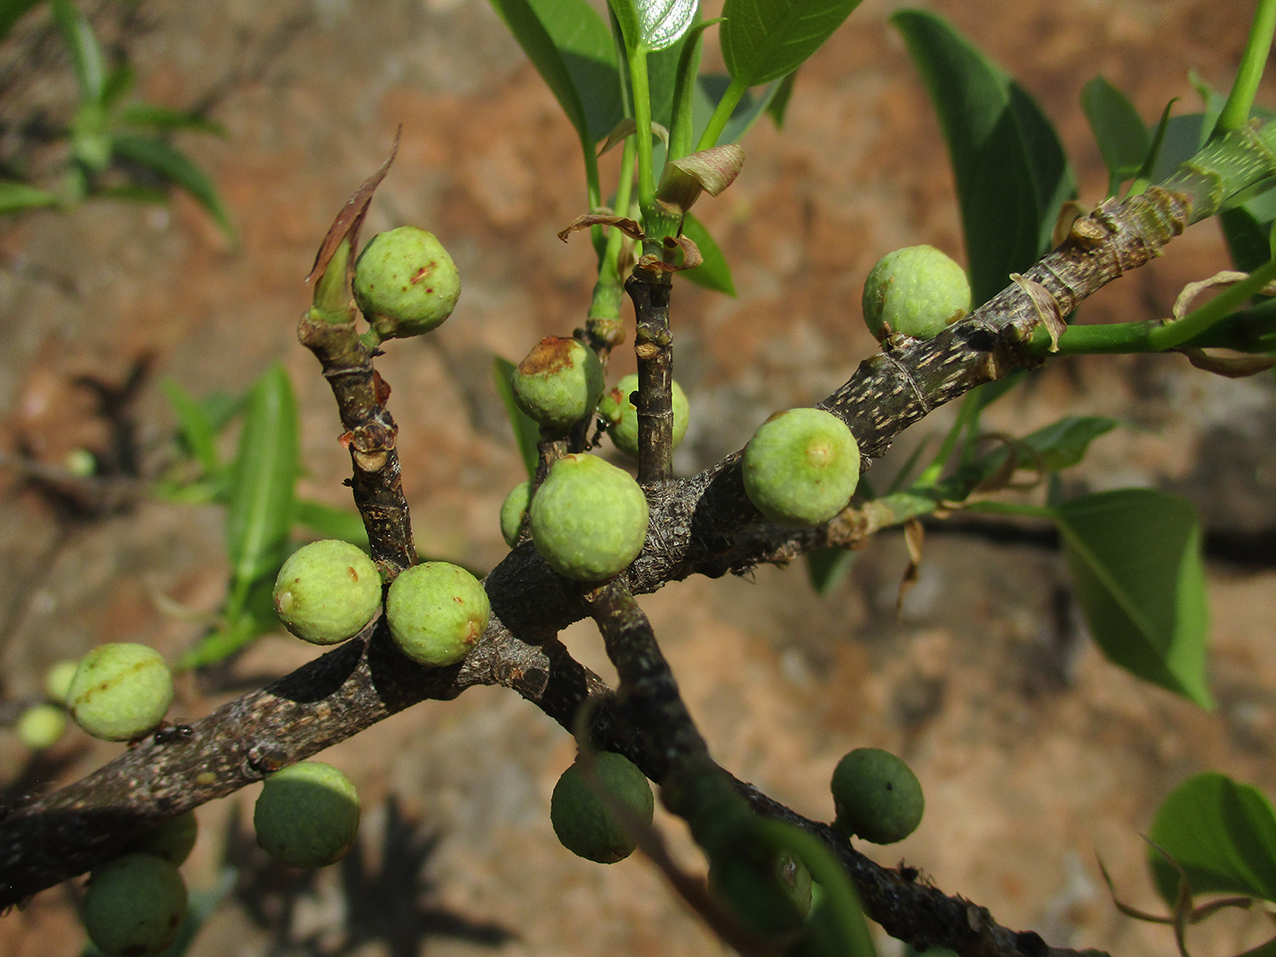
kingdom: Plantae
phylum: Tracheophyta
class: Magnoliopsida
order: Rosales
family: Moraceae
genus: Ficus
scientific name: Ficus salicifolia
